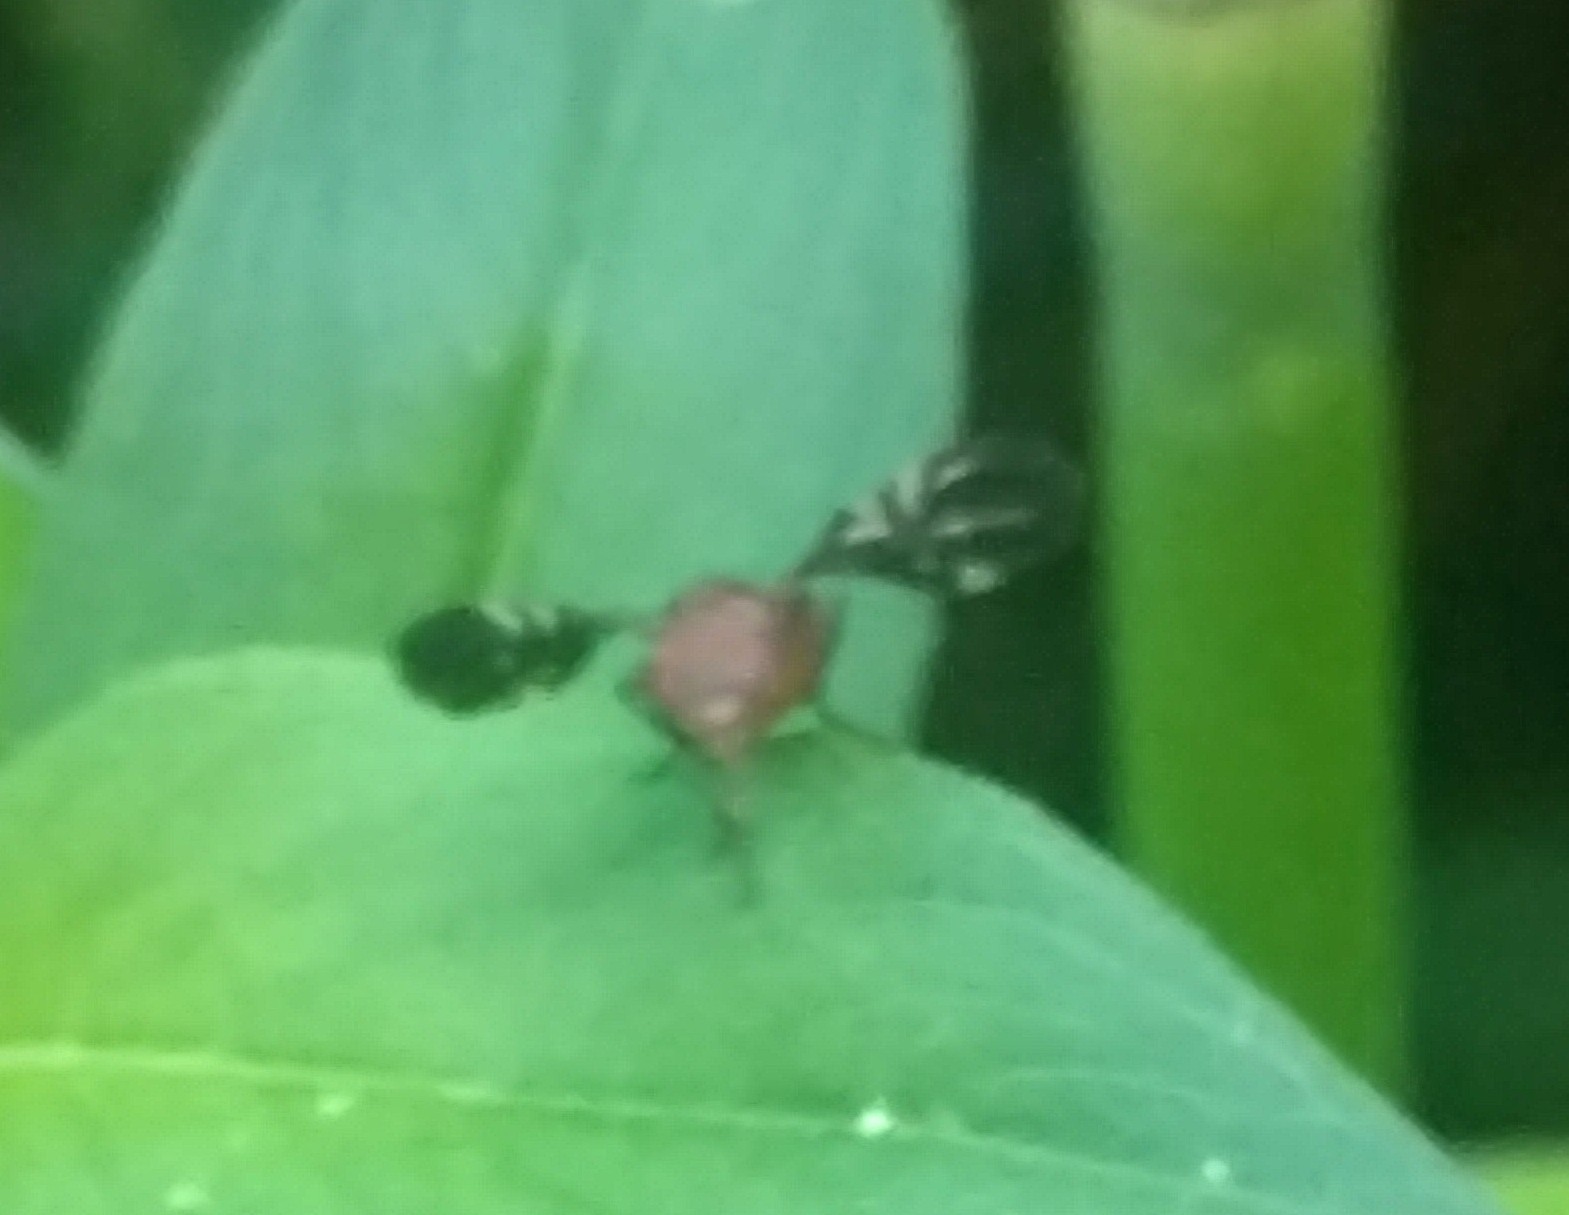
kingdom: Animalia
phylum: Arthropoda
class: Insecta
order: Diptera
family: Ulidiidae
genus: Delphinia
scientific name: Delphinia picta
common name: Common picture-winged fly
